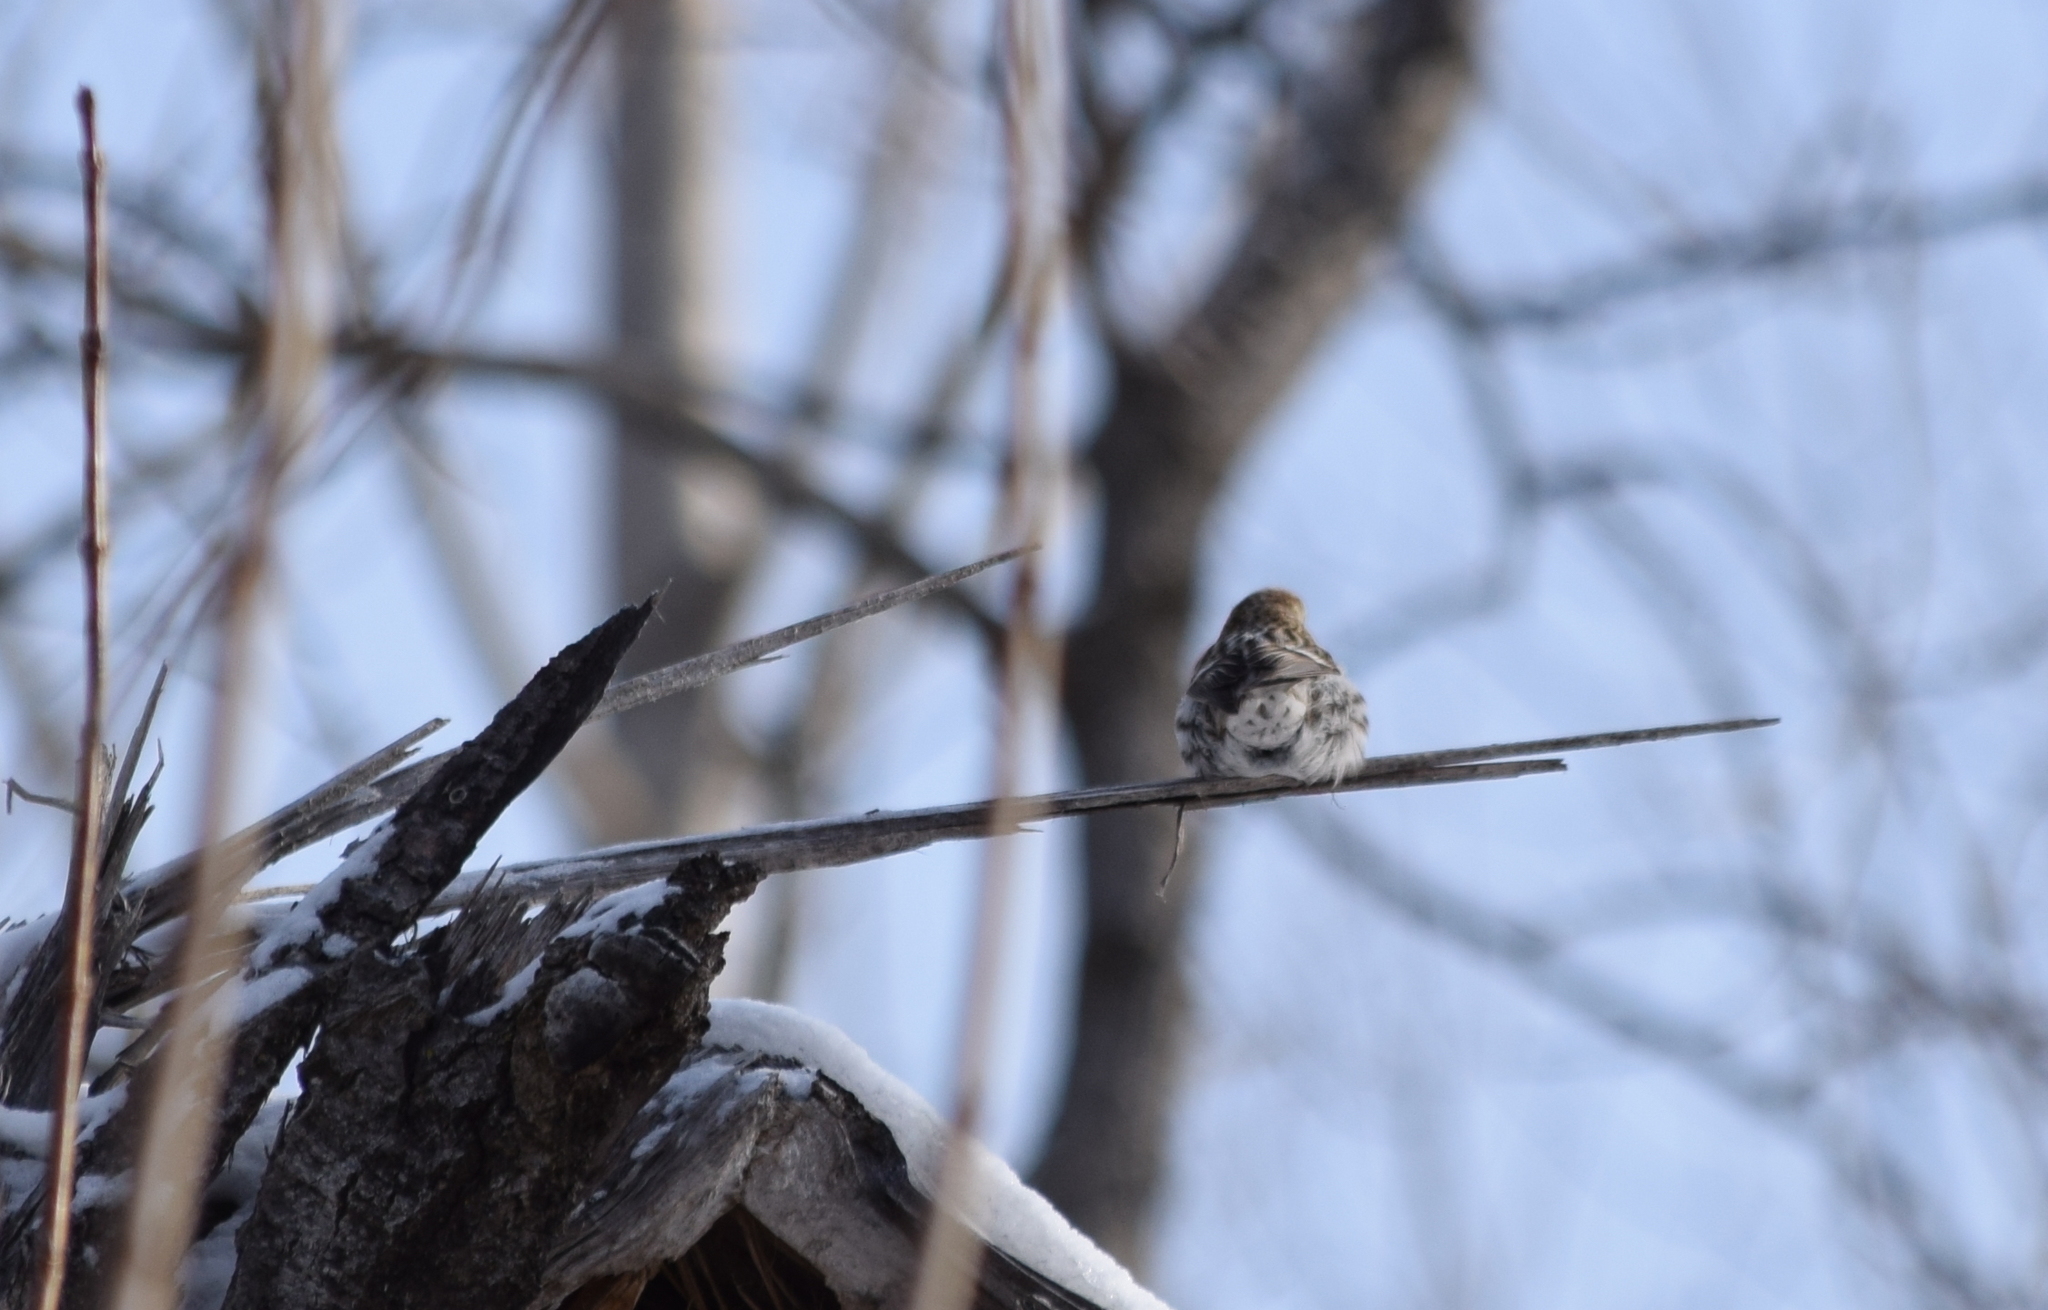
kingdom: Animalia
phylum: Chordata
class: Aves
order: Passeriformes
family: Fringillidae
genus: Acanthis
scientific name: Acanthis flammea
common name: Common redpoll
